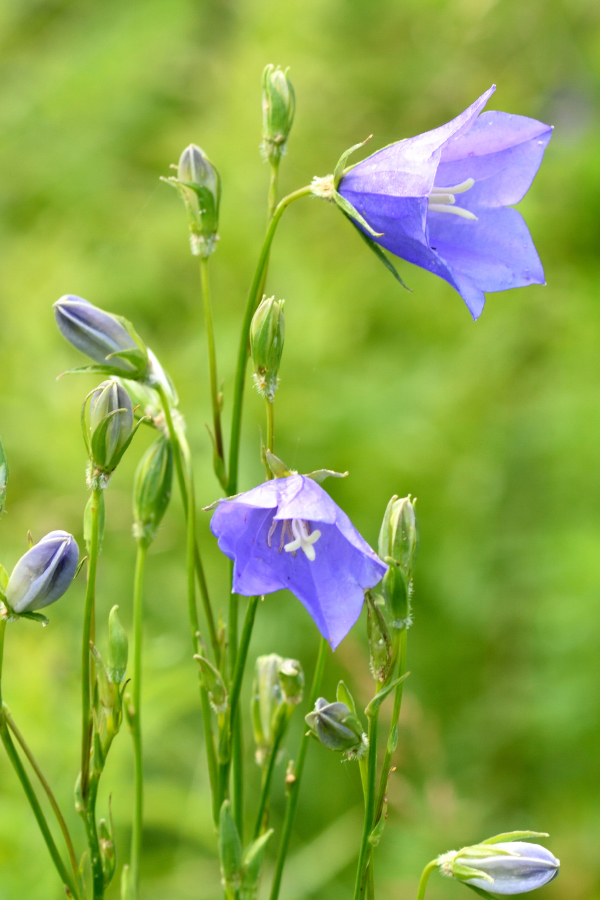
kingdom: Plantae
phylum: Tracheophyta
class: Magnoliopsida
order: Asterales
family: Campanulaceae
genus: Campanula
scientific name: Campanula persicifolia
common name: Peach-leaved bellflower
